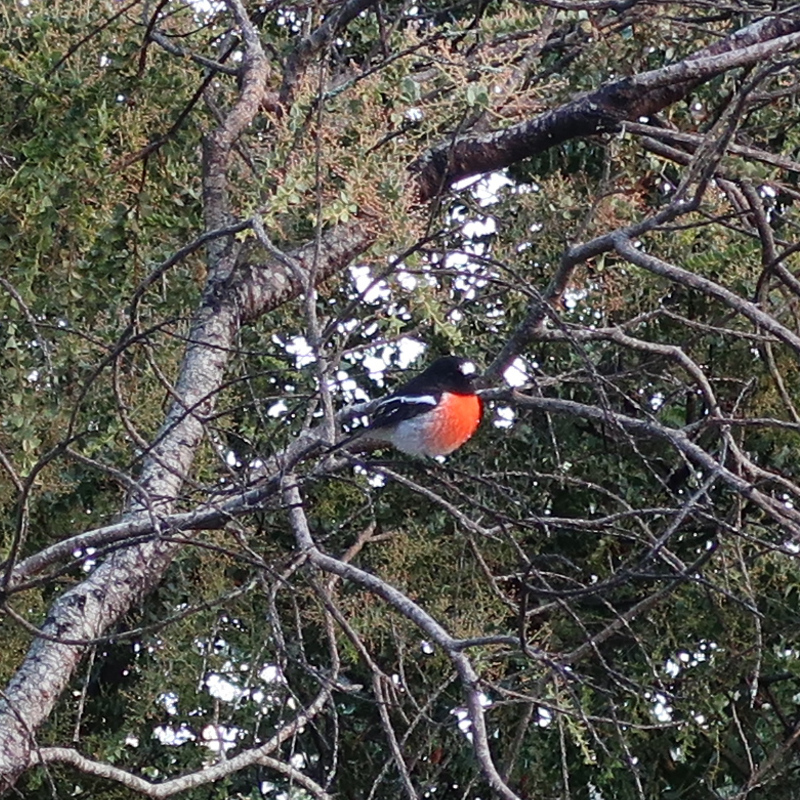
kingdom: Animalia
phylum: Chordata
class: Aves
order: Passeriformes
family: Petroicidae
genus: Petroica
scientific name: Petroica boodang
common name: Scarlet robin
